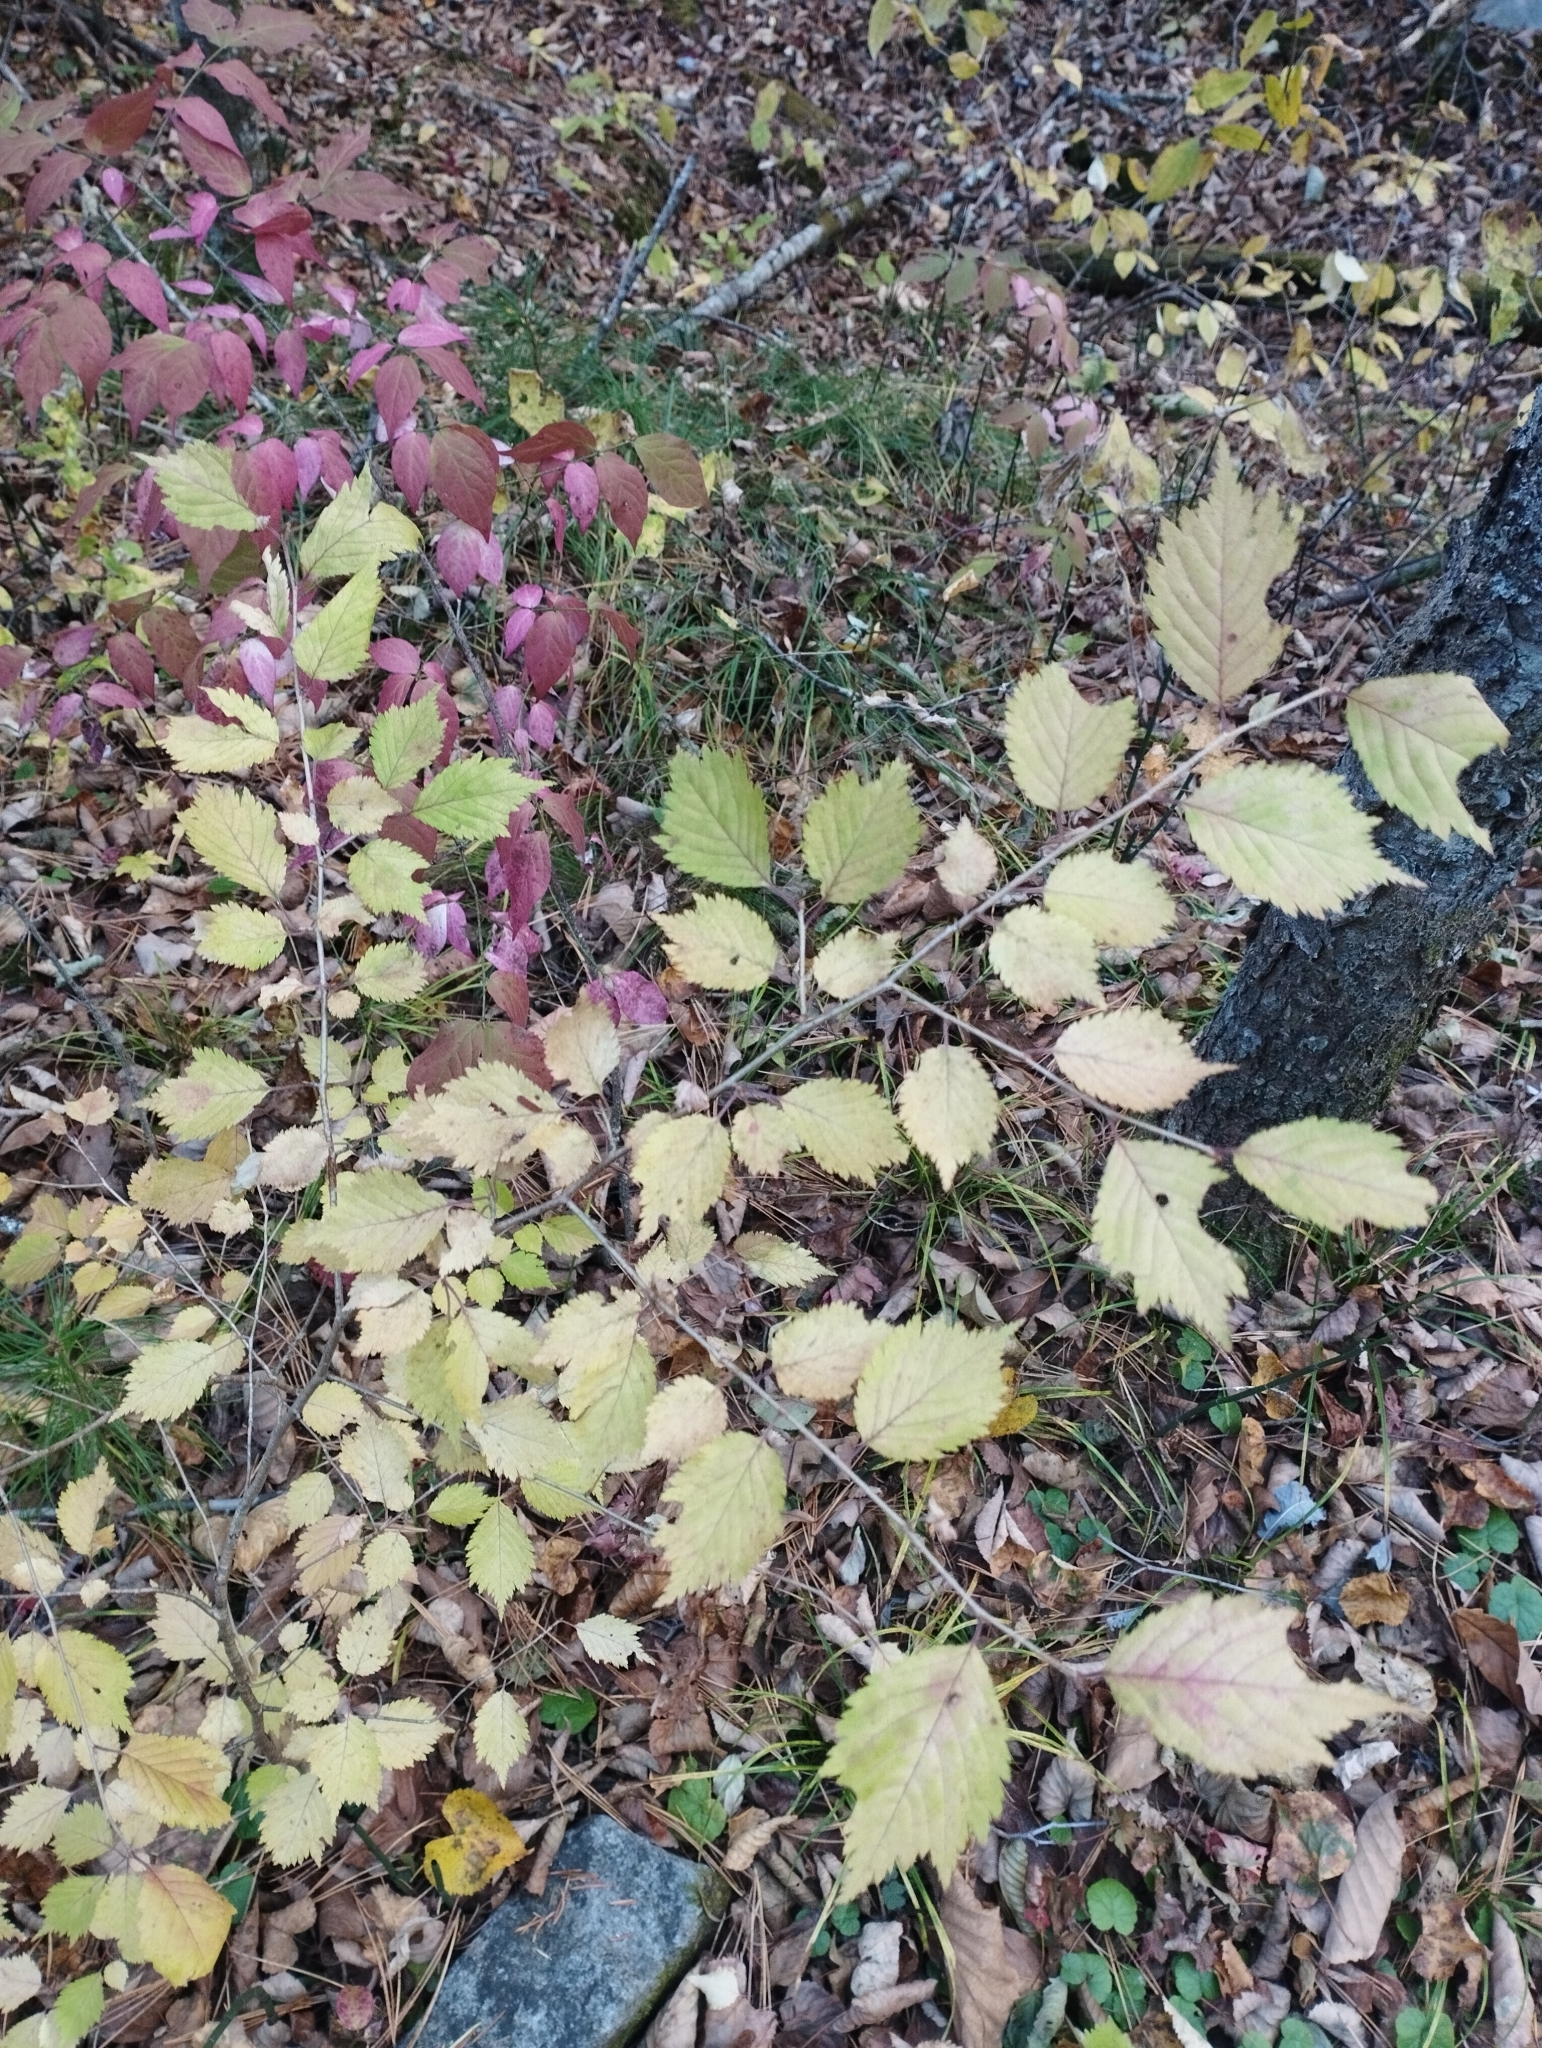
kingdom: Plantae
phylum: Tracheophyta
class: Magnoliopsida
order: Rosales
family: Rosaceae
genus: Prunus
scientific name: Prunus maximowiczii
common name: Korean cherry
